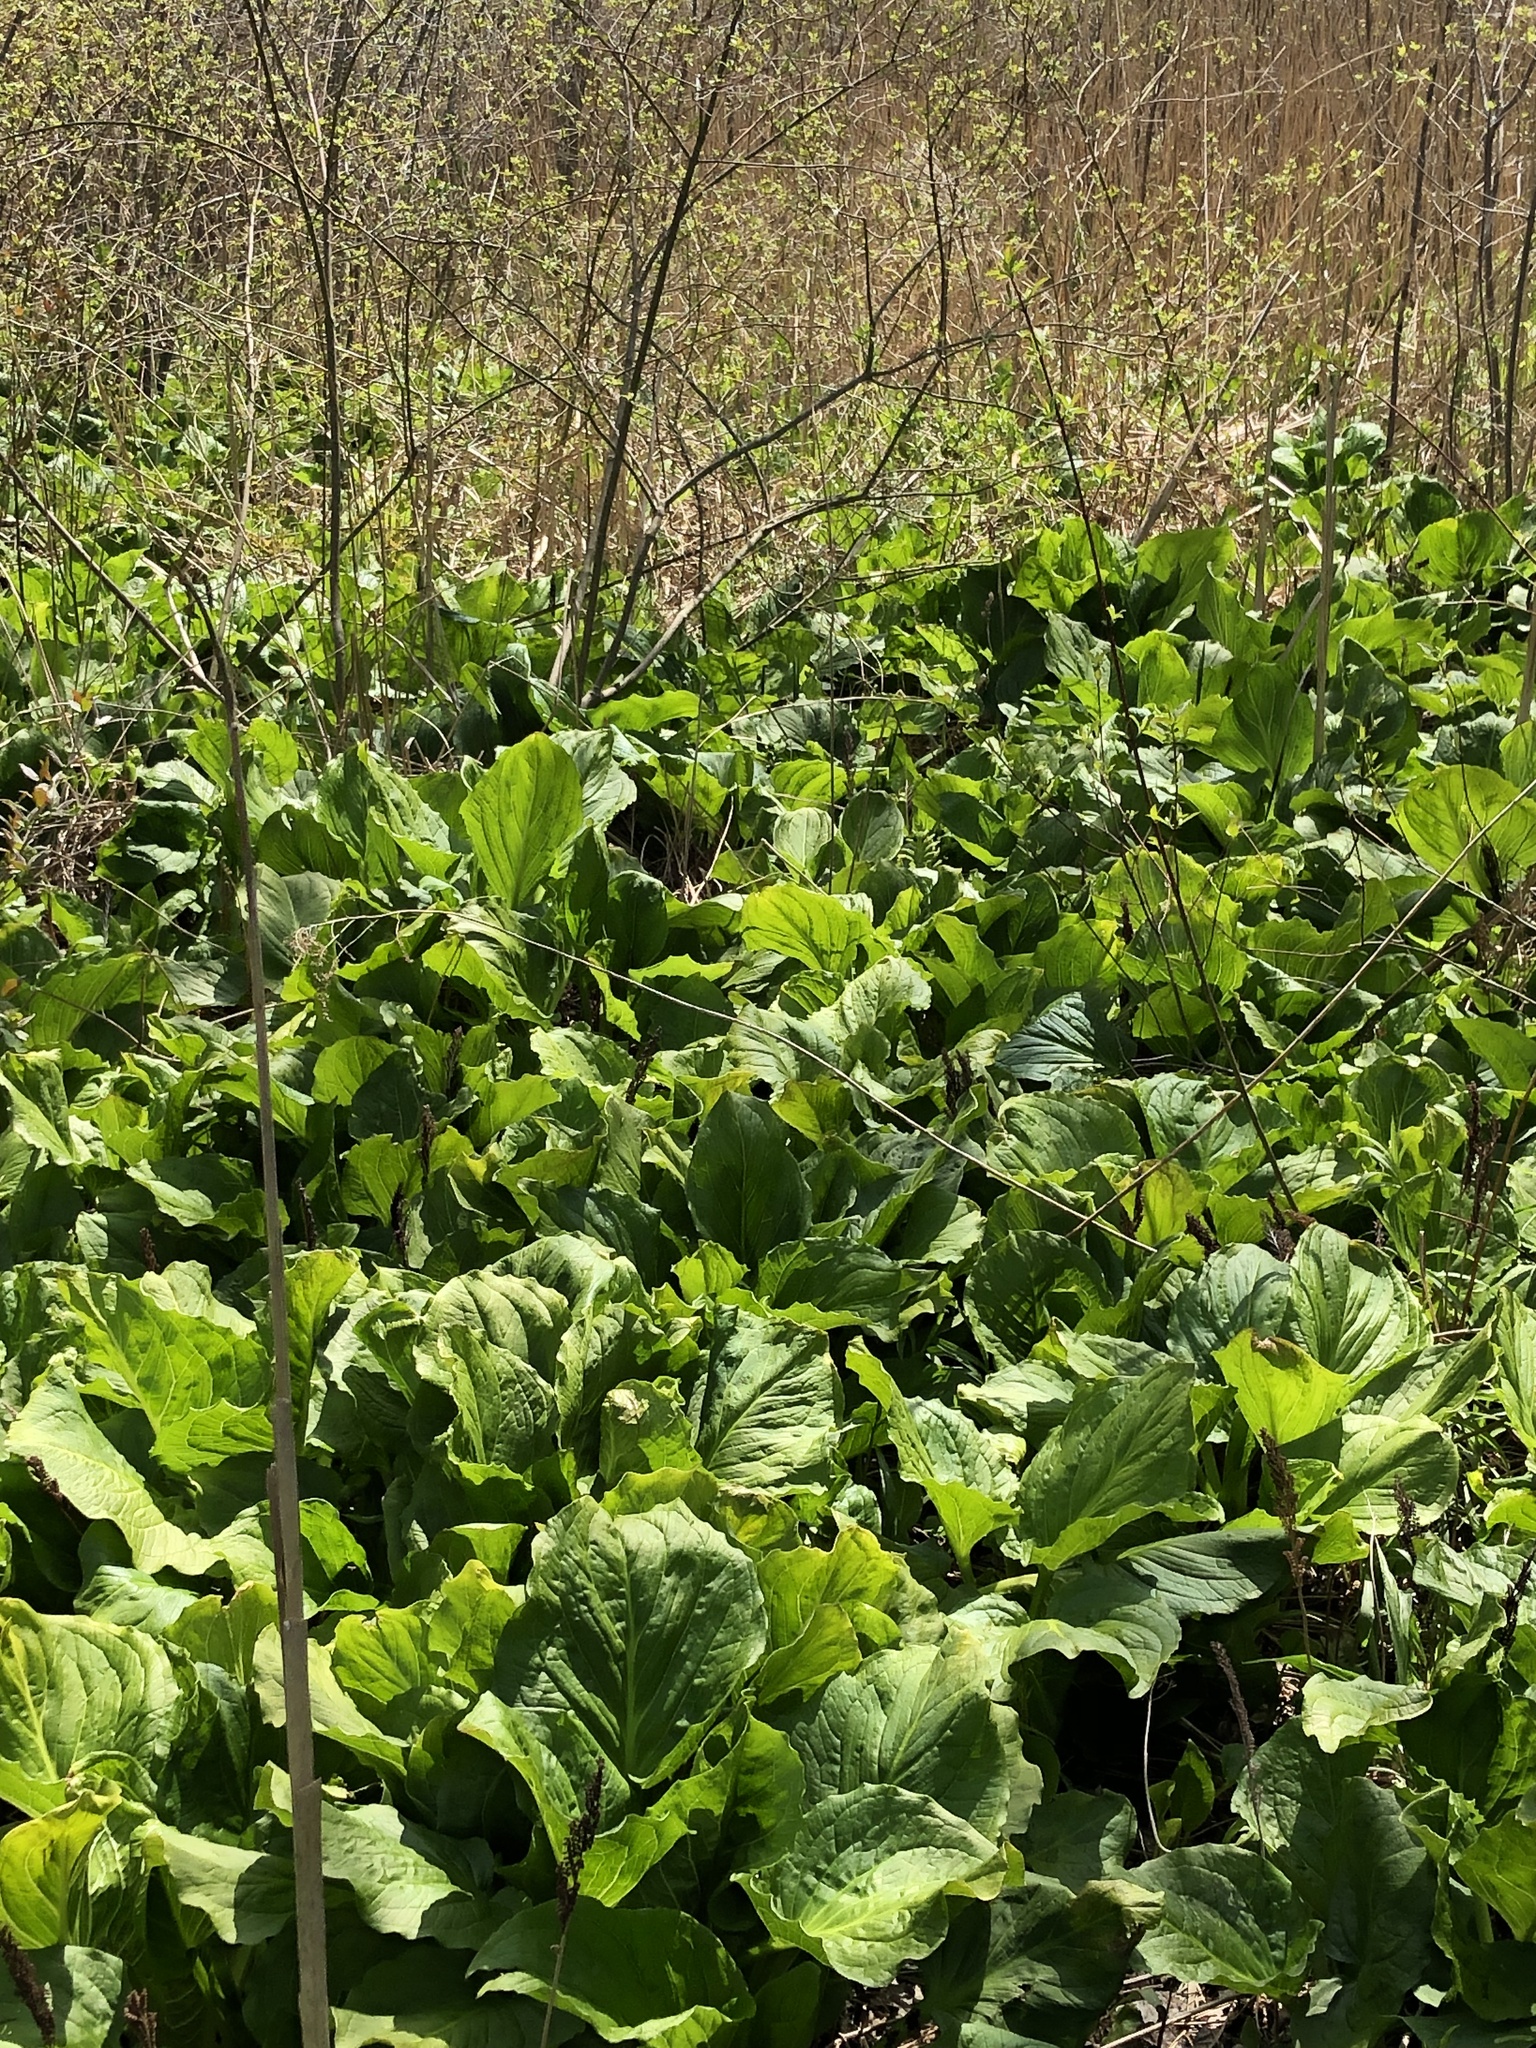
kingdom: Plantae
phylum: Tracheophyta
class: Liliopsida
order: Alismatales
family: Araceae
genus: Symplocarpus
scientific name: Symplocarpus foetidus
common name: Eastern skunk cabbage
